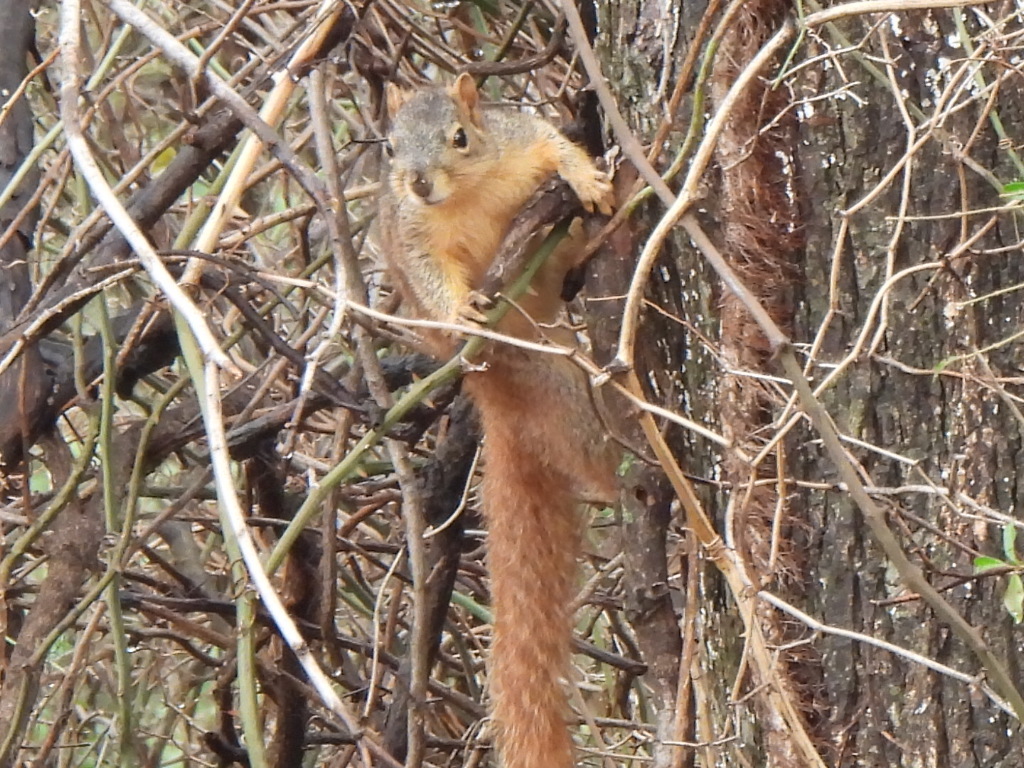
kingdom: Animalia
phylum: Chordata
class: Mammalia
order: Rodentia
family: Sciuridae
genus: Sciurus
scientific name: Sciurus niger
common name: Fox squirrel
